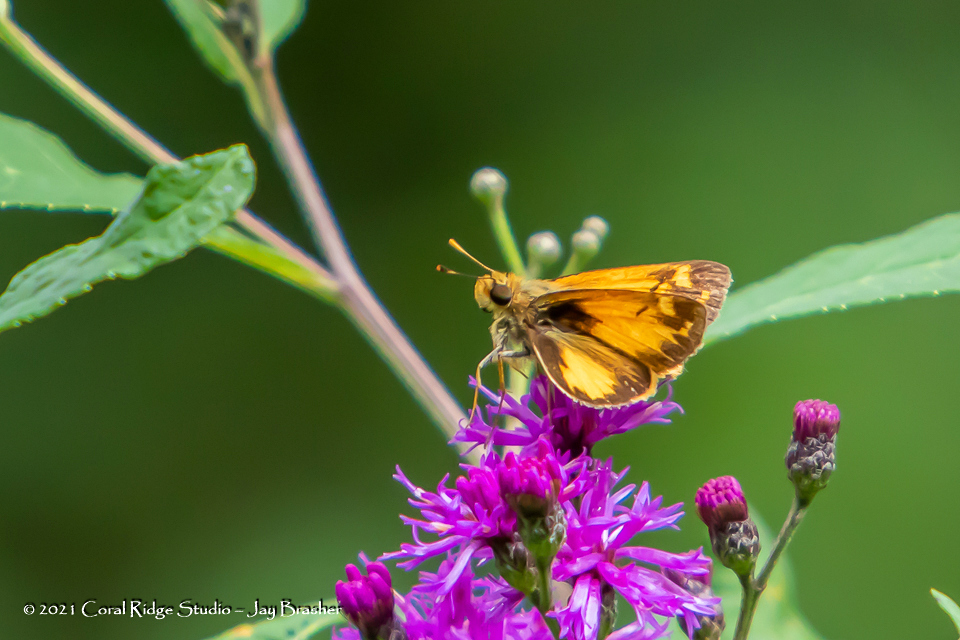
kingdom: Animalia
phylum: Arthropoda
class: Insecta
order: Lepidoptera
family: Hesperiidae
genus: Lon
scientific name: Lon zabulon
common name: Zabulon skipper
